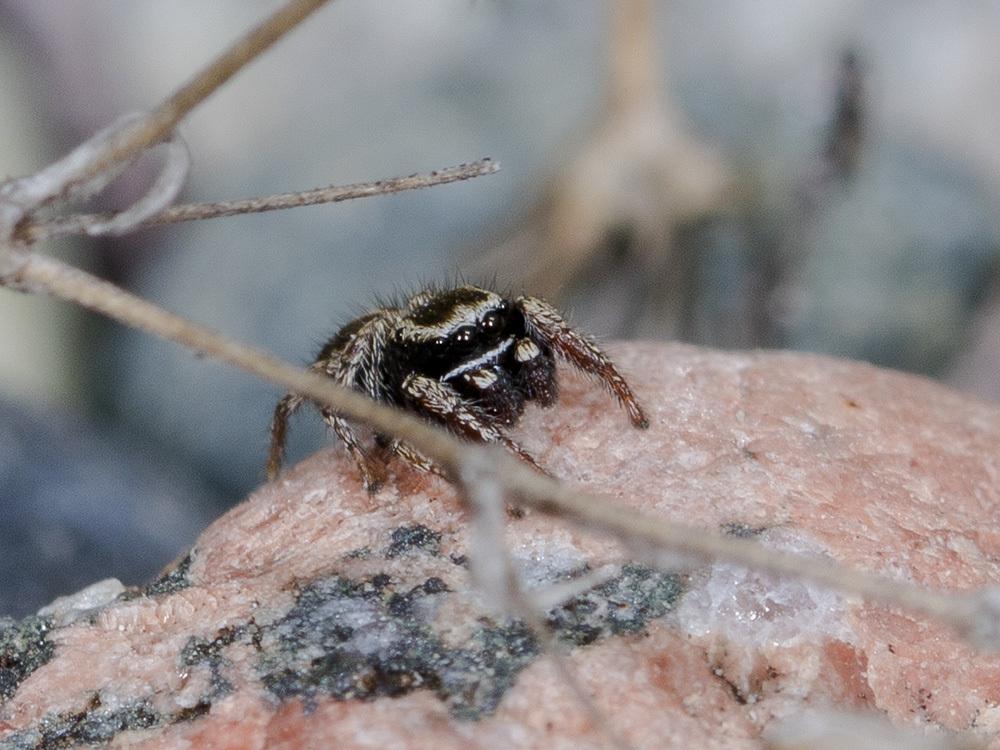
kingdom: Animalia
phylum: Arthropoda
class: Arachnida
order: Araneae
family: Salticidae
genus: Pellenes
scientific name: Pellenes epularis
